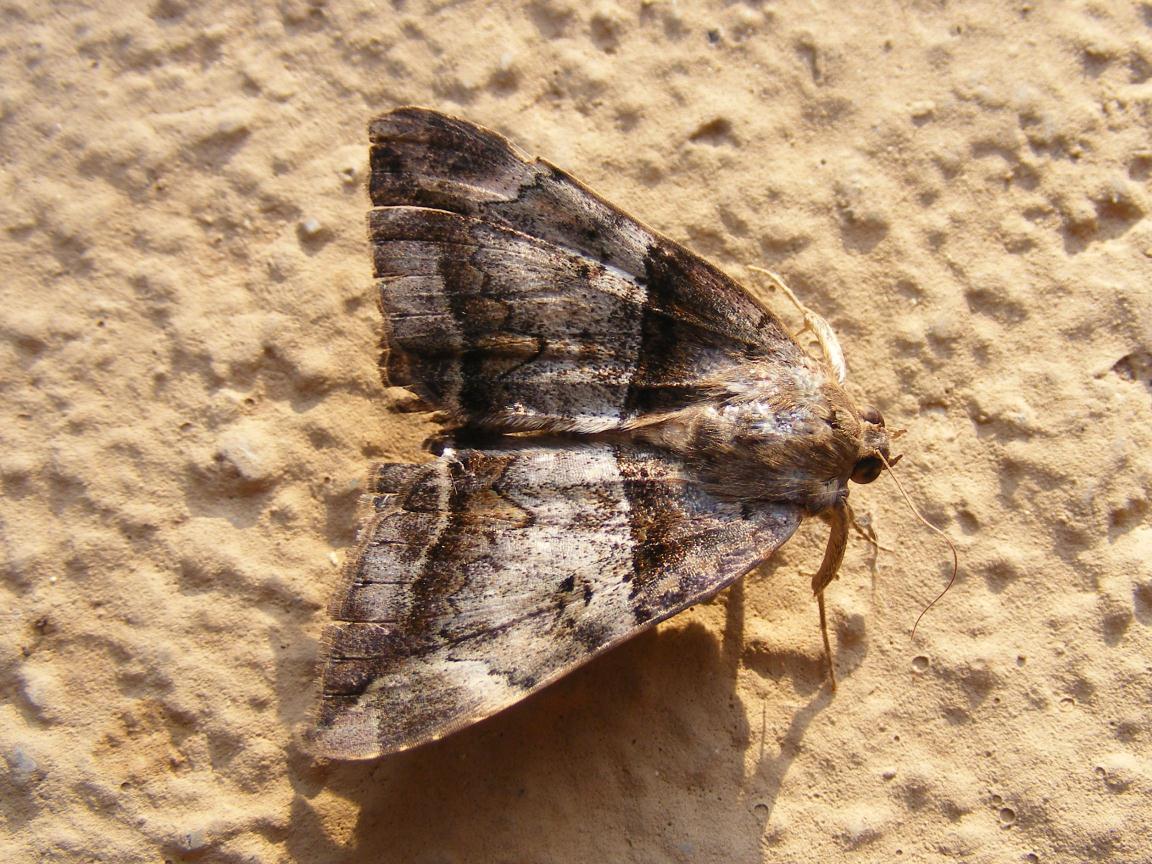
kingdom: Animalia
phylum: Arthropoda
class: Insecta
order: Lepidoptera
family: Erebidae
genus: Achaea
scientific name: Achaea lienardi
